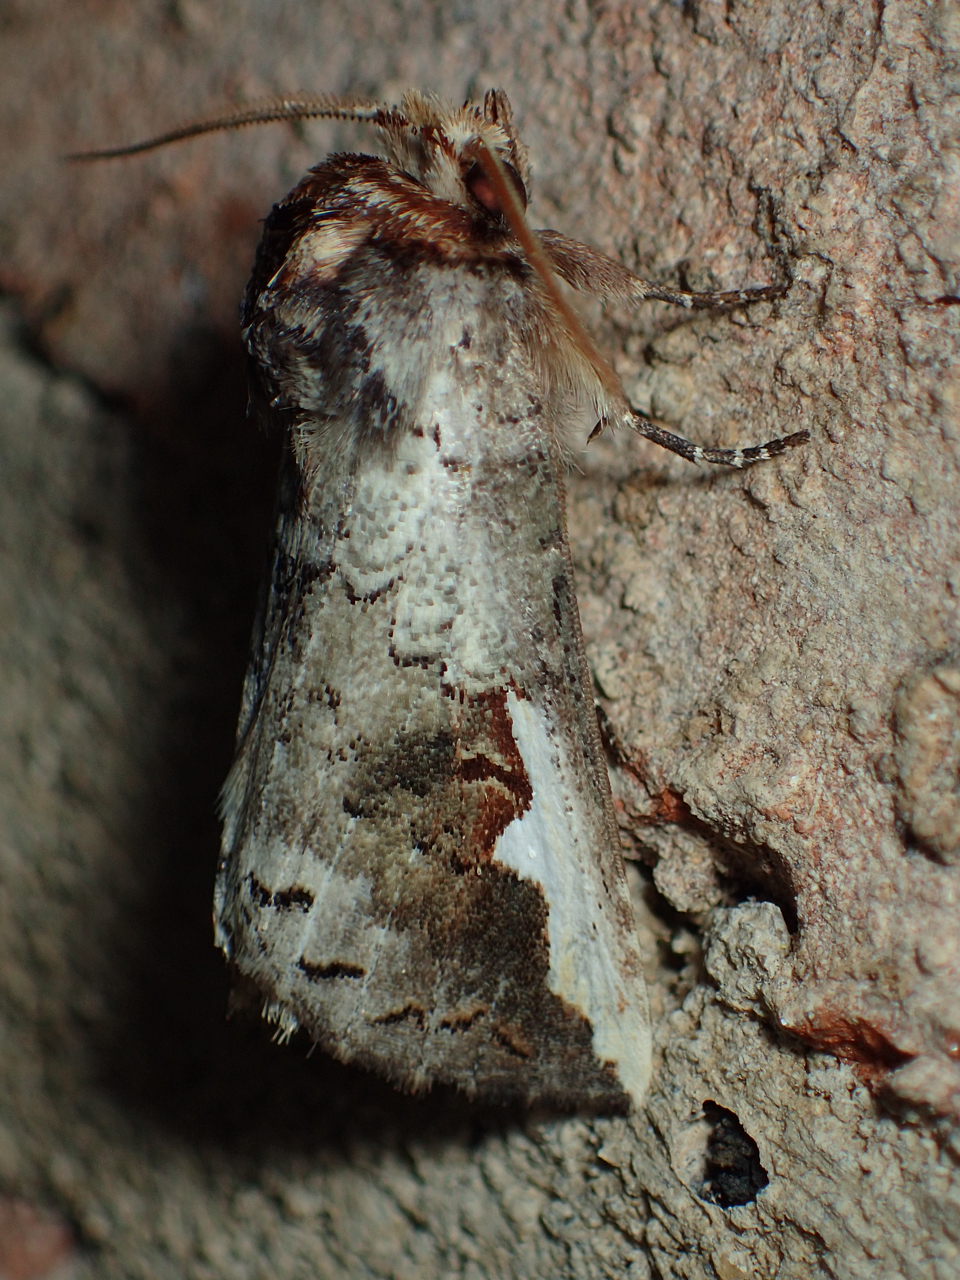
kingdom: Animalia
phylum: Arthropoda
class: Insecta
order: Lepidoptera
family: Notodontidae
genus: Symmerista
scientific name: Symmerista
